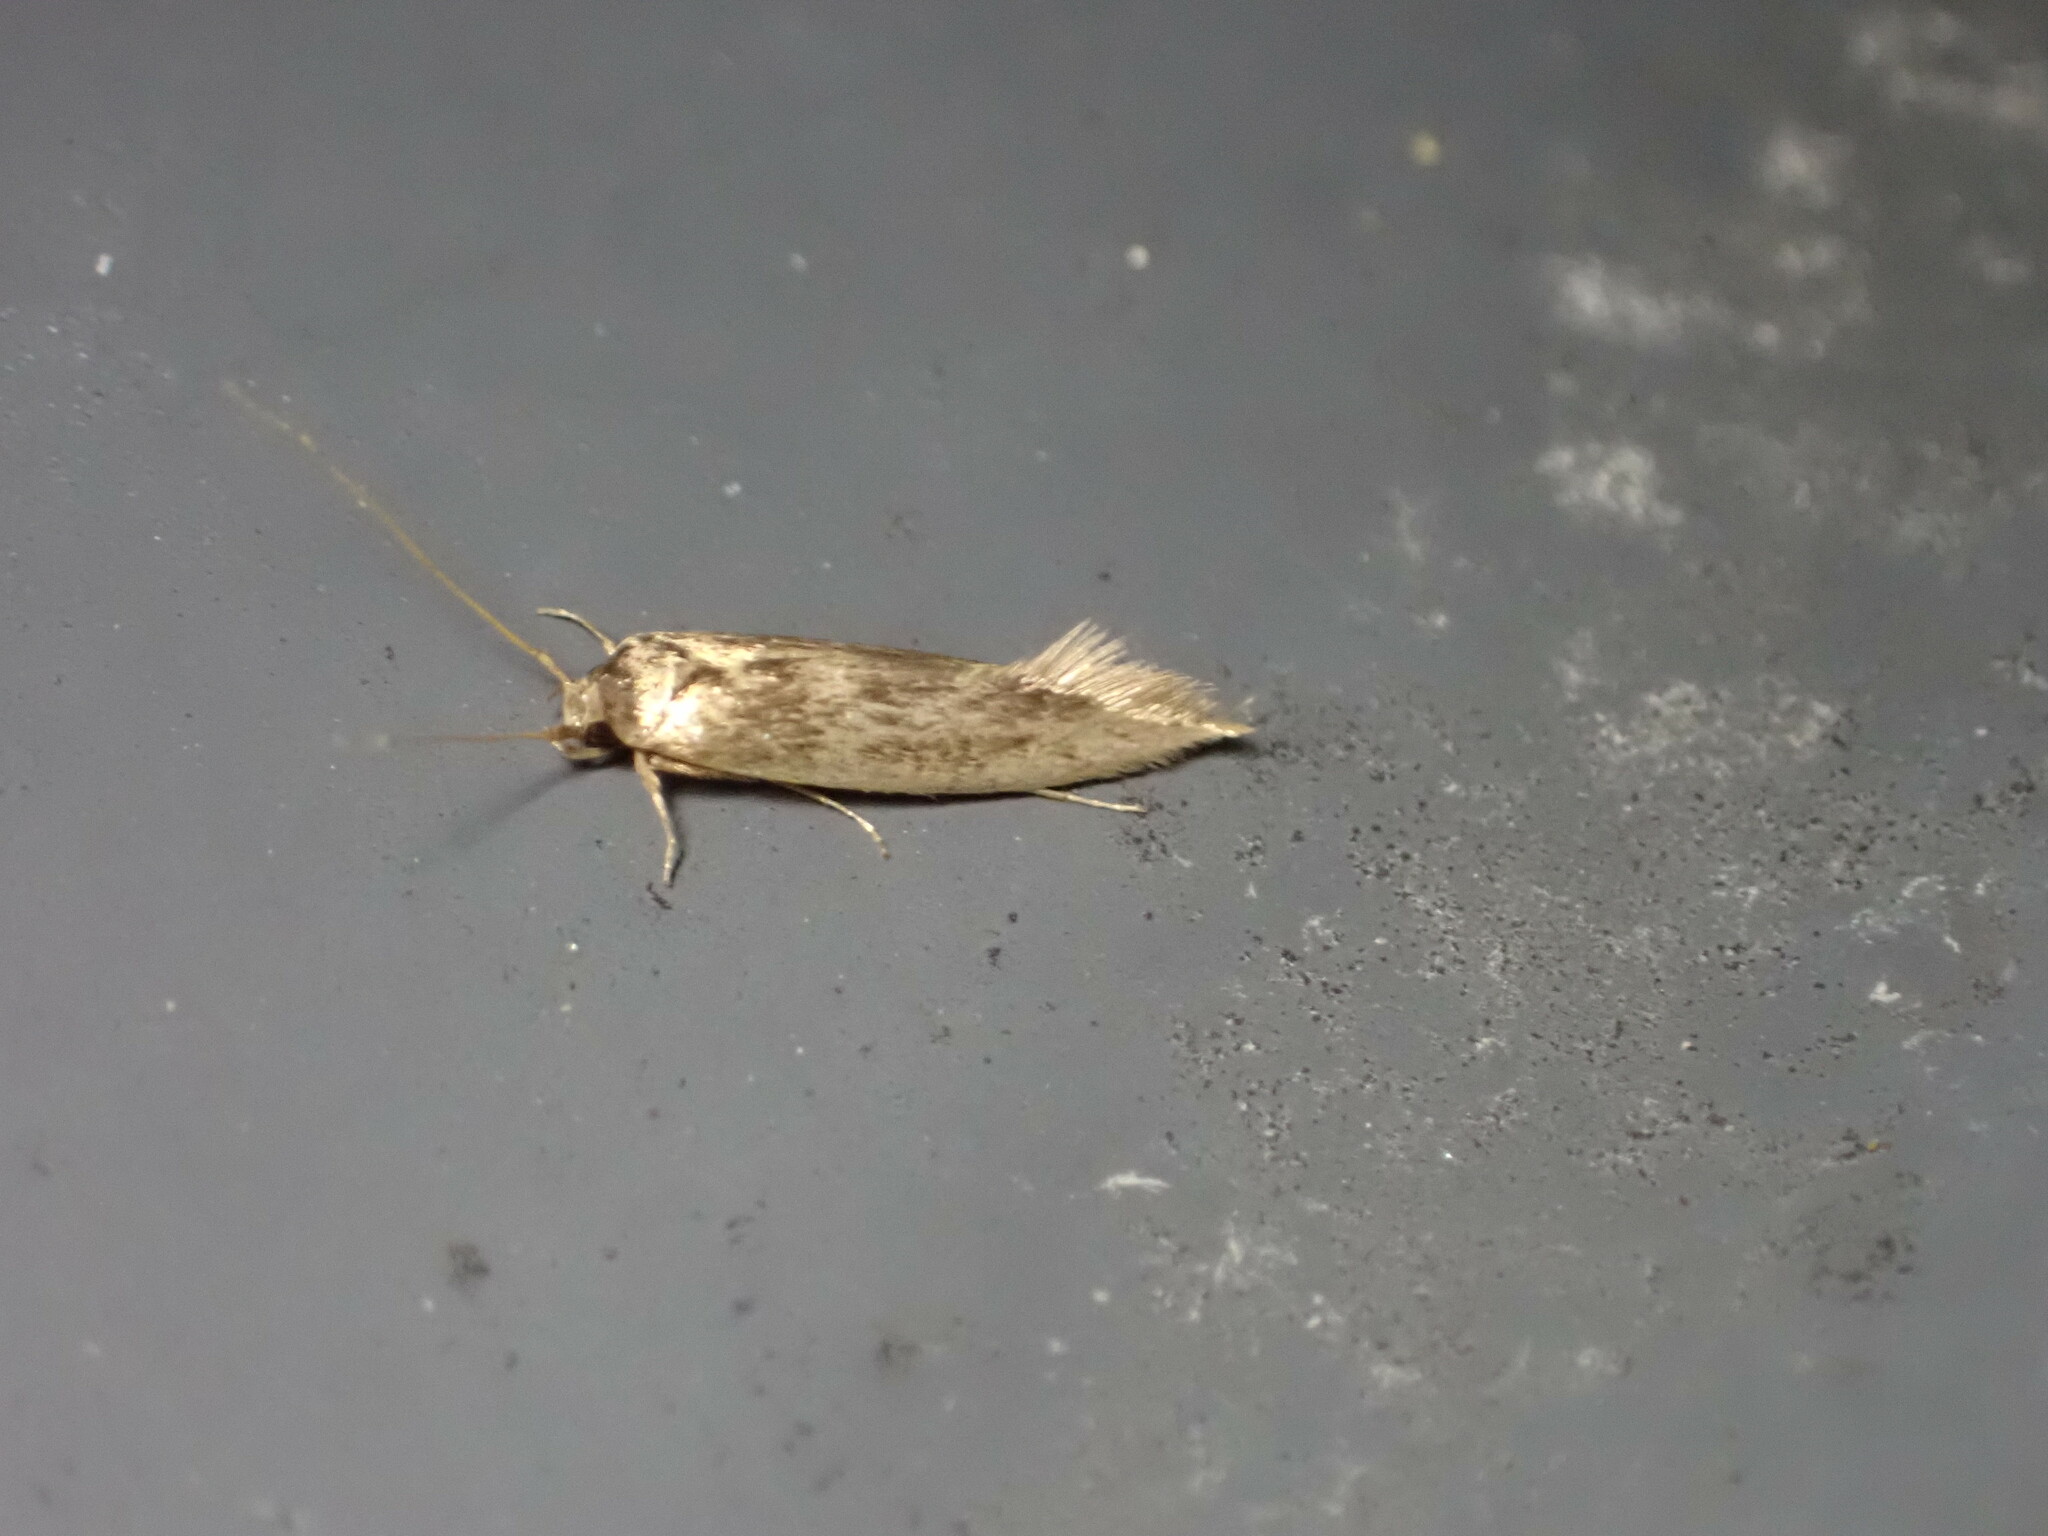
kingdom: Animalia
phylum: Arthropoda
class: Insecta
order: Lepidoptera
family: Tineidae
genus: Opogona
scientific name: Opogona omoscopa
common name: Moth
